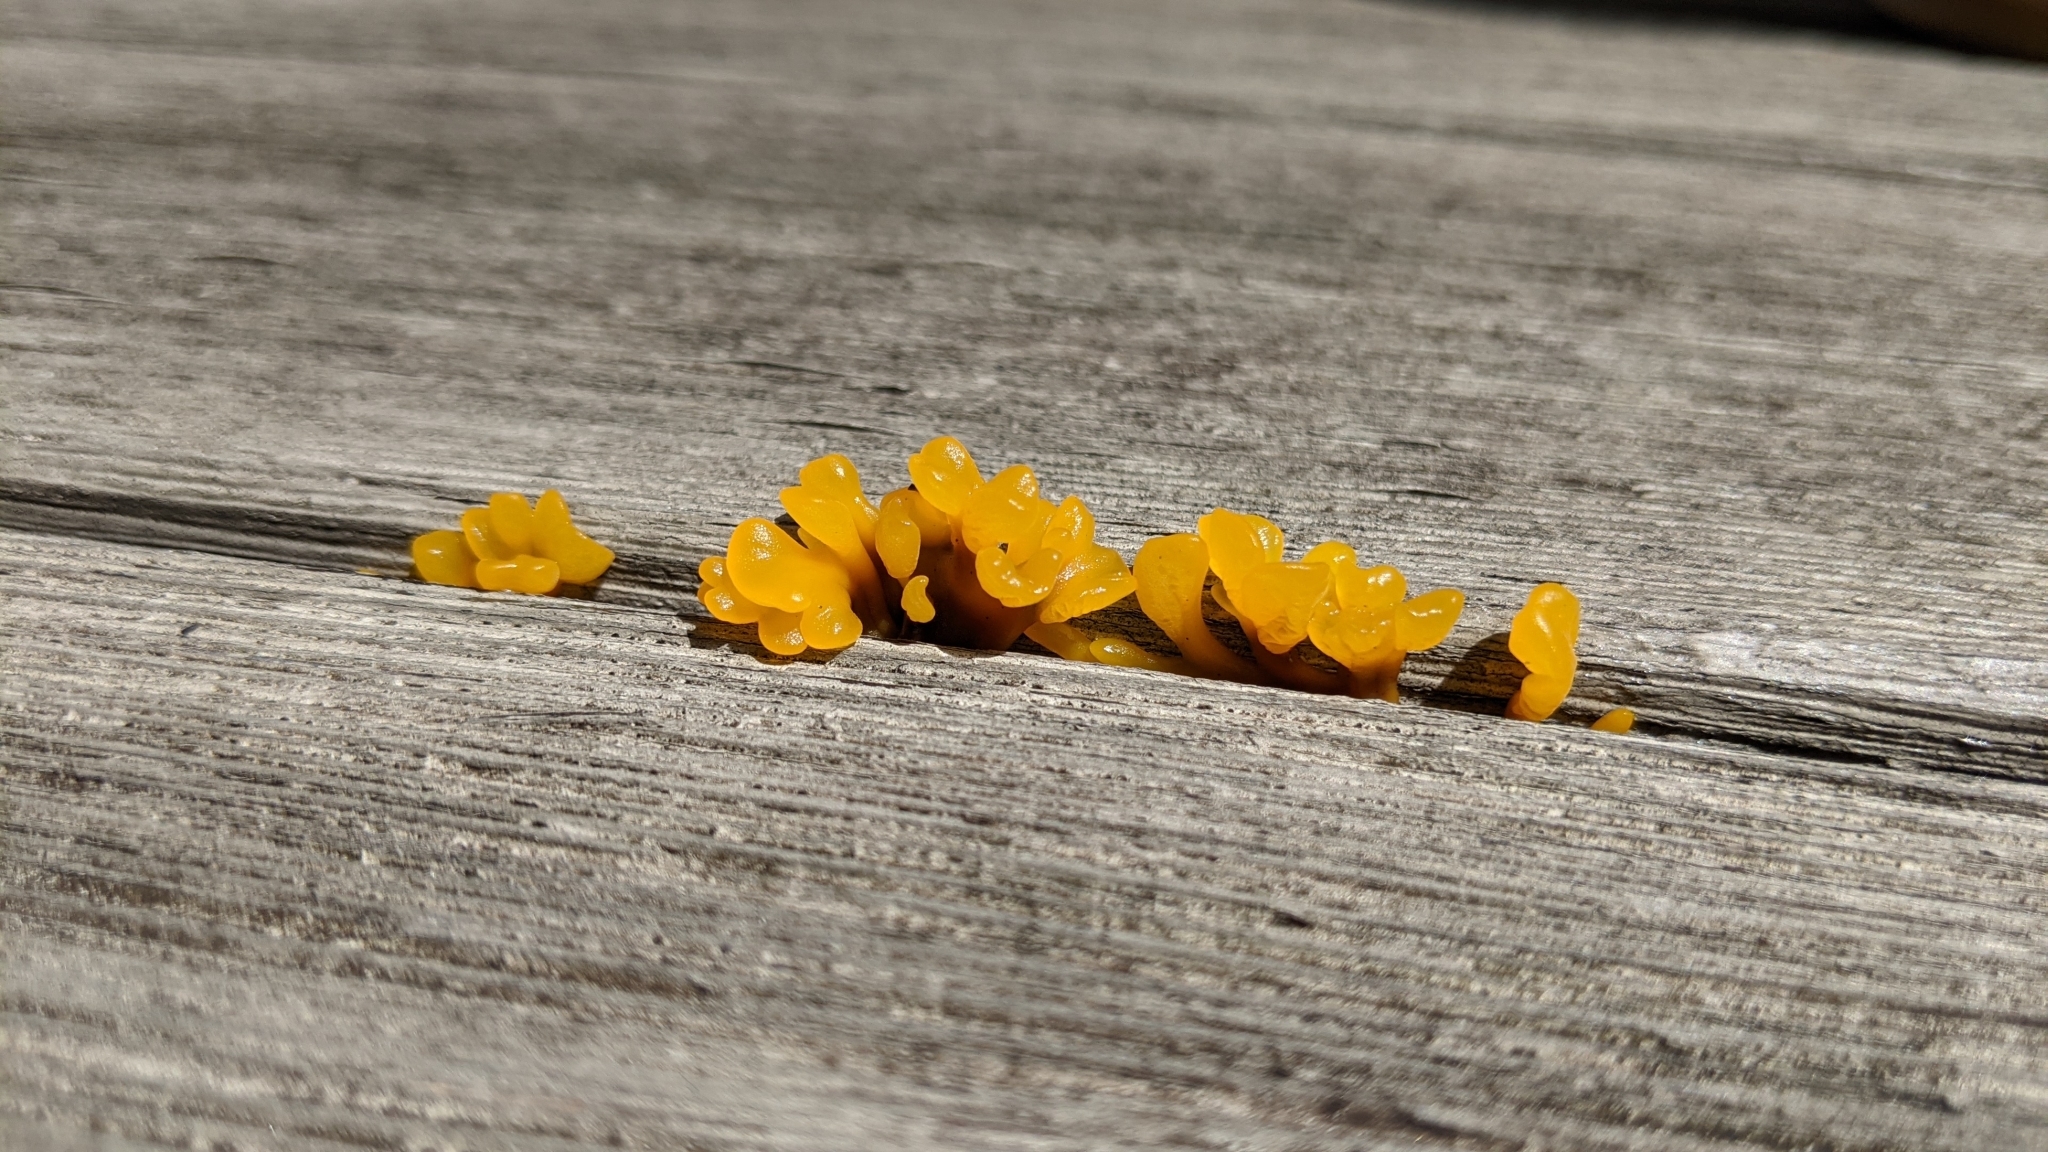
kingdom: Fungi
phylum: Basidiomycota
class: Dacrymycetes
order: Dacrymycetales
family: Dacrymycetaceae
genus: Dacrymyces
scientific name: Dacrymyces spathularius
